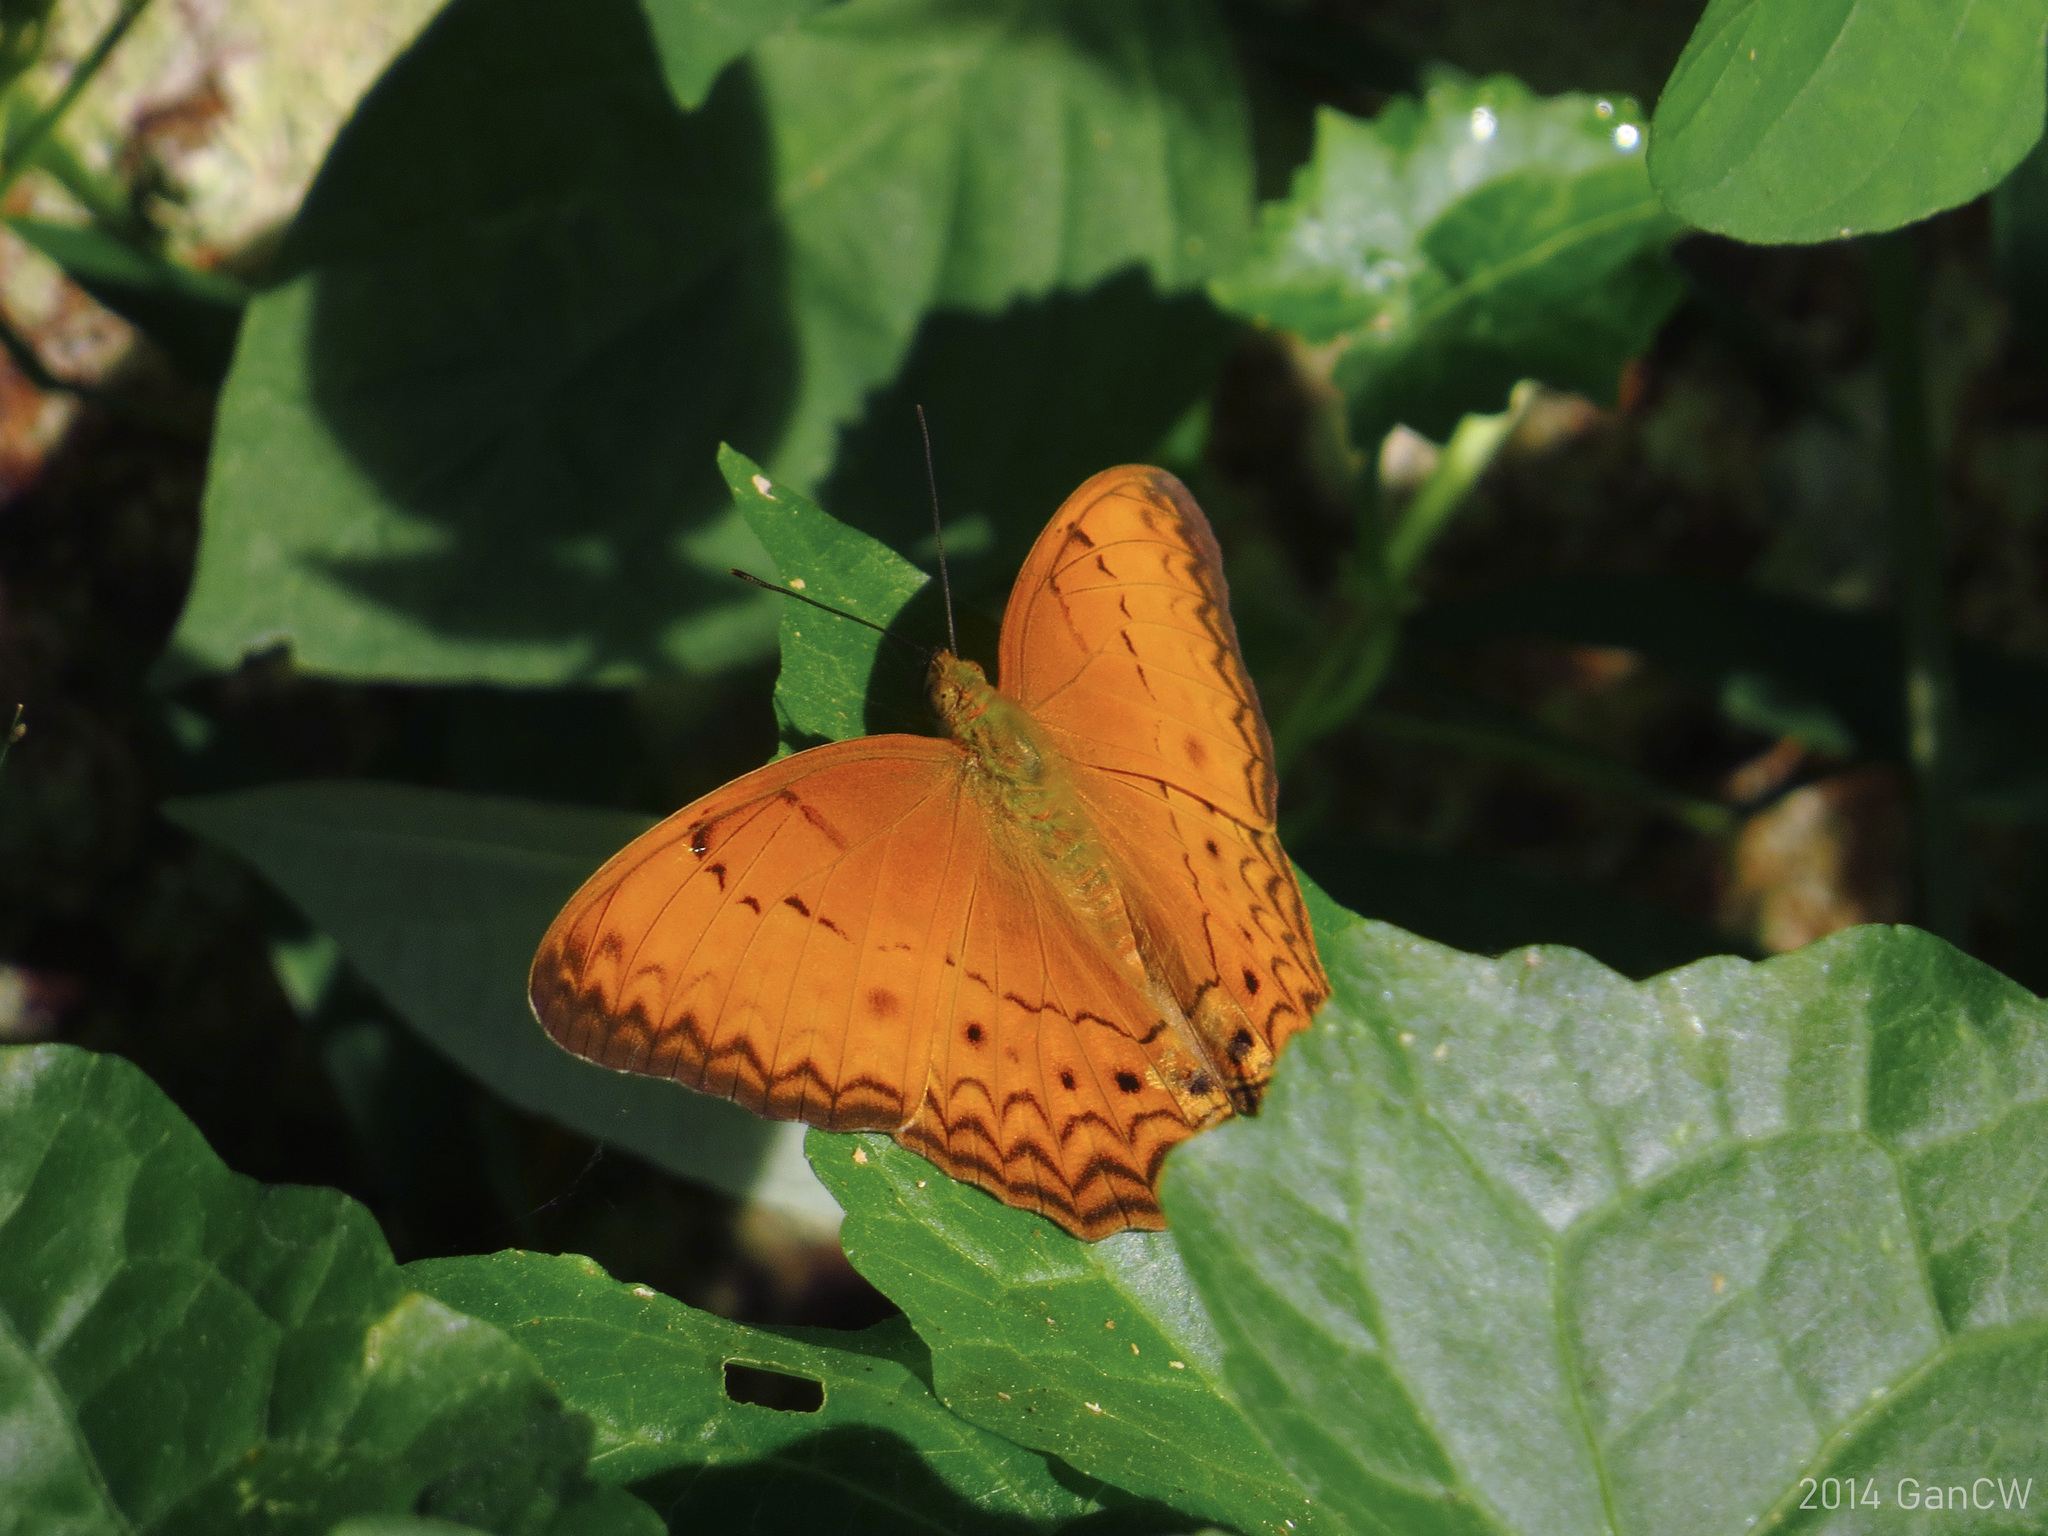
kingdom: Animalia
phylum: Arthropoda
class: Insecta
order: Lepidoptera
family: Nymphalidae
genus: Cirrochroa
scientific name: Cirrochroa tyche
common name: Common yeoman
